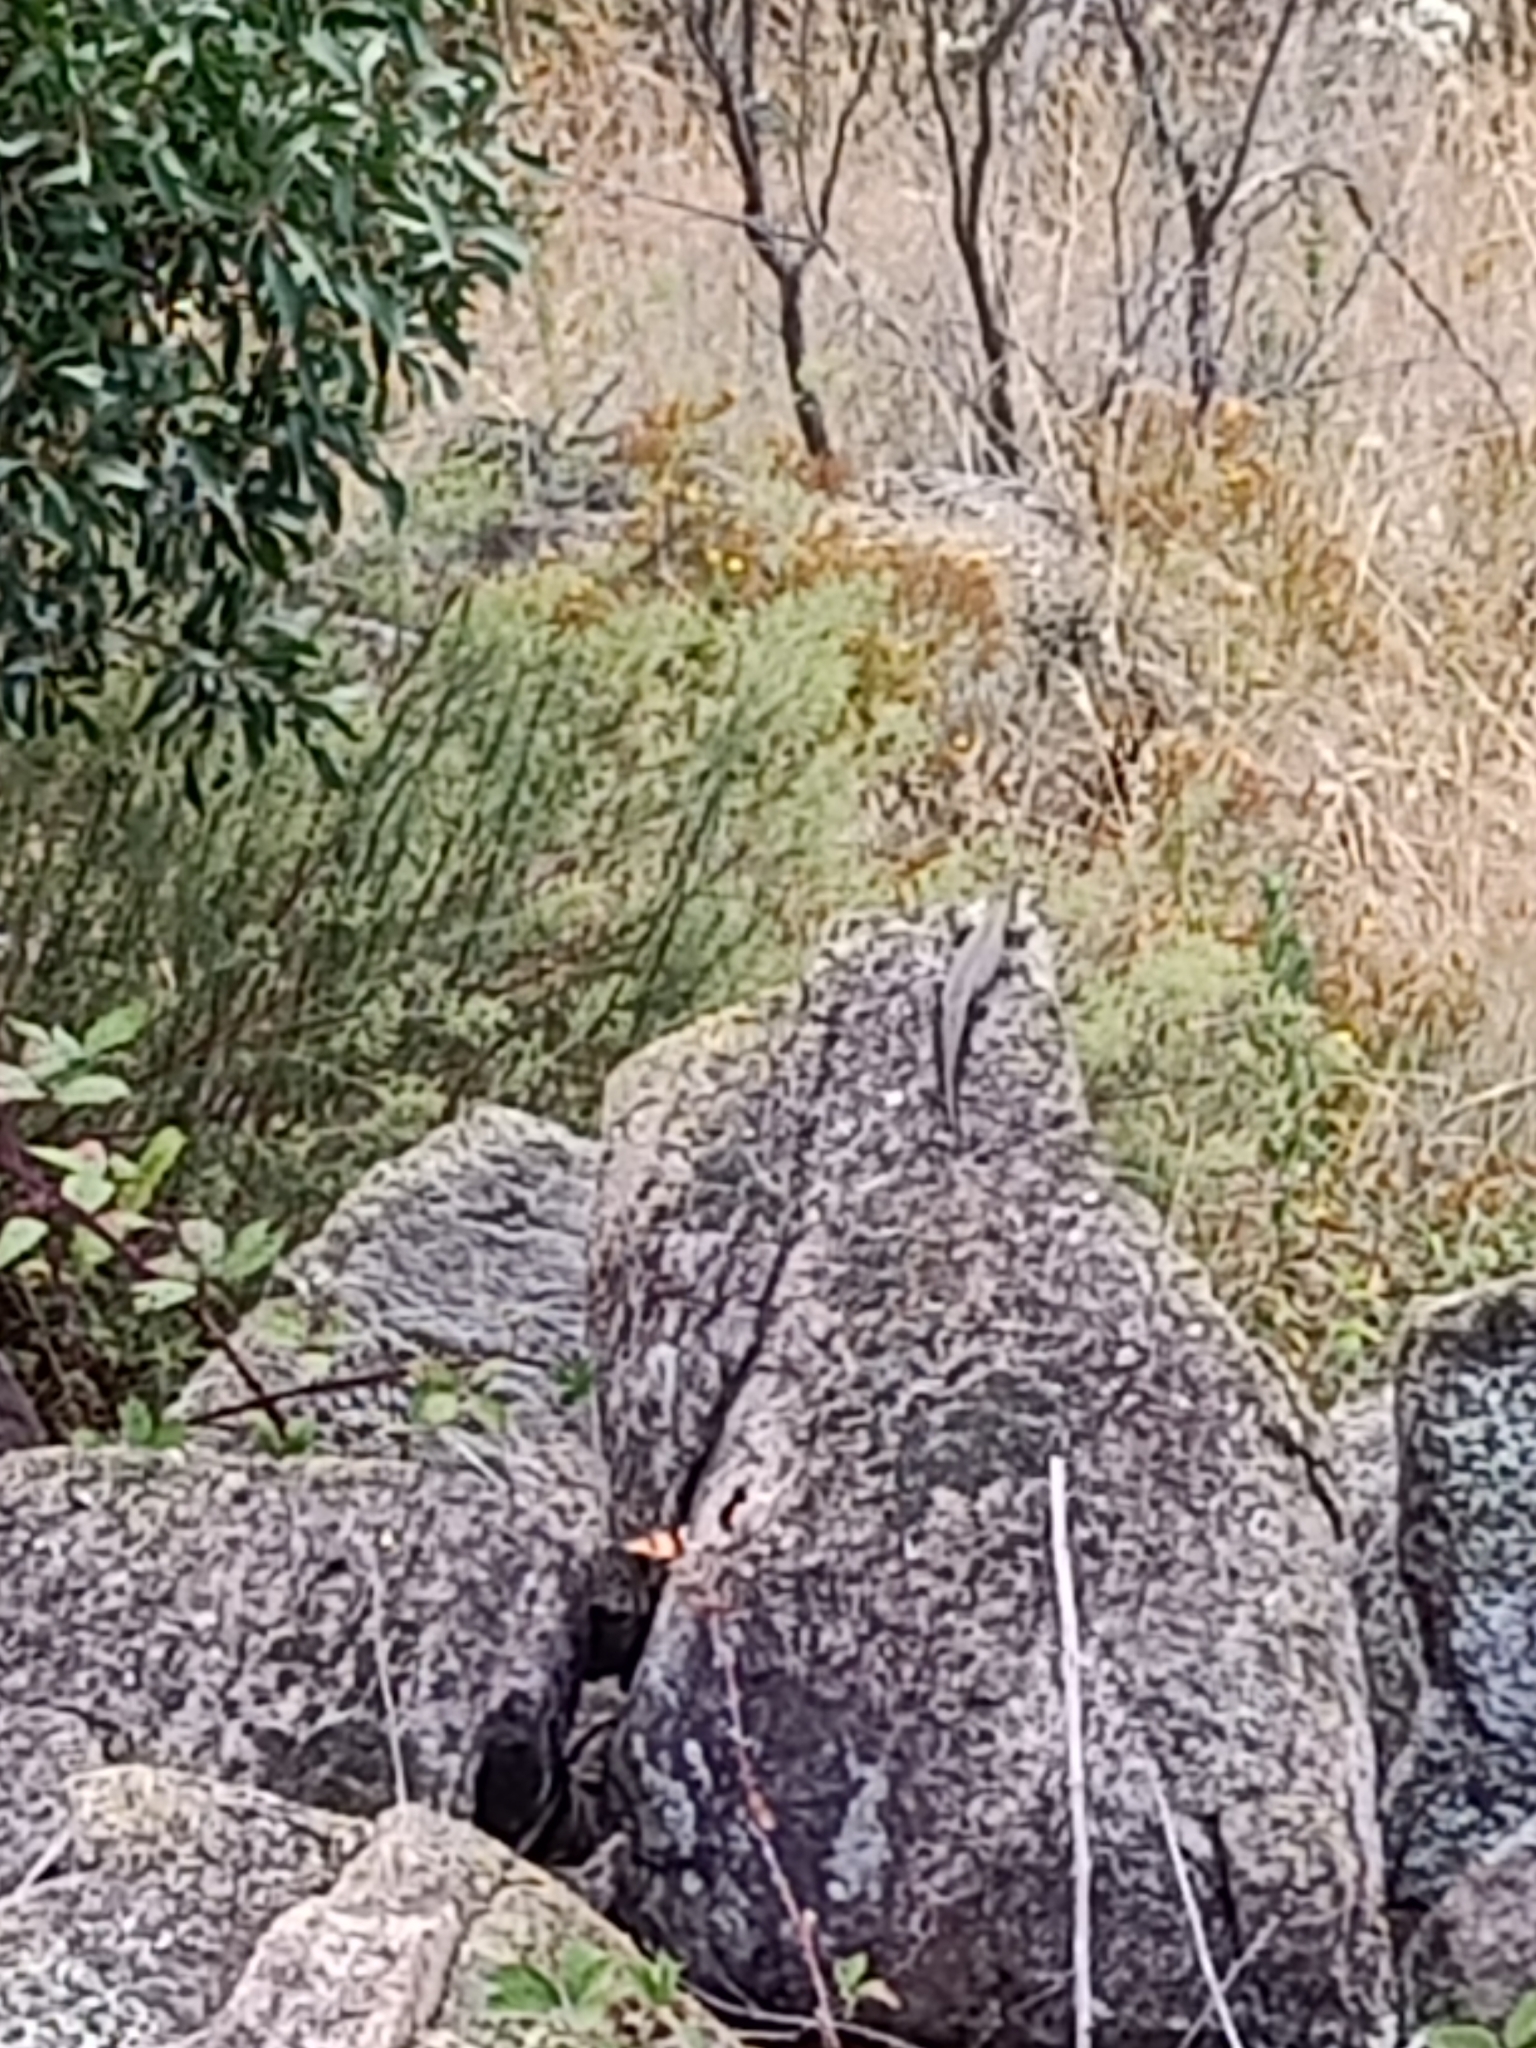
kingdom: Animalia
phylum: Chordata
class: Squamata
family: Scincidae
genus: Egernia
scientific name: Egernia cunninghami
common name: Cunningham's skink
